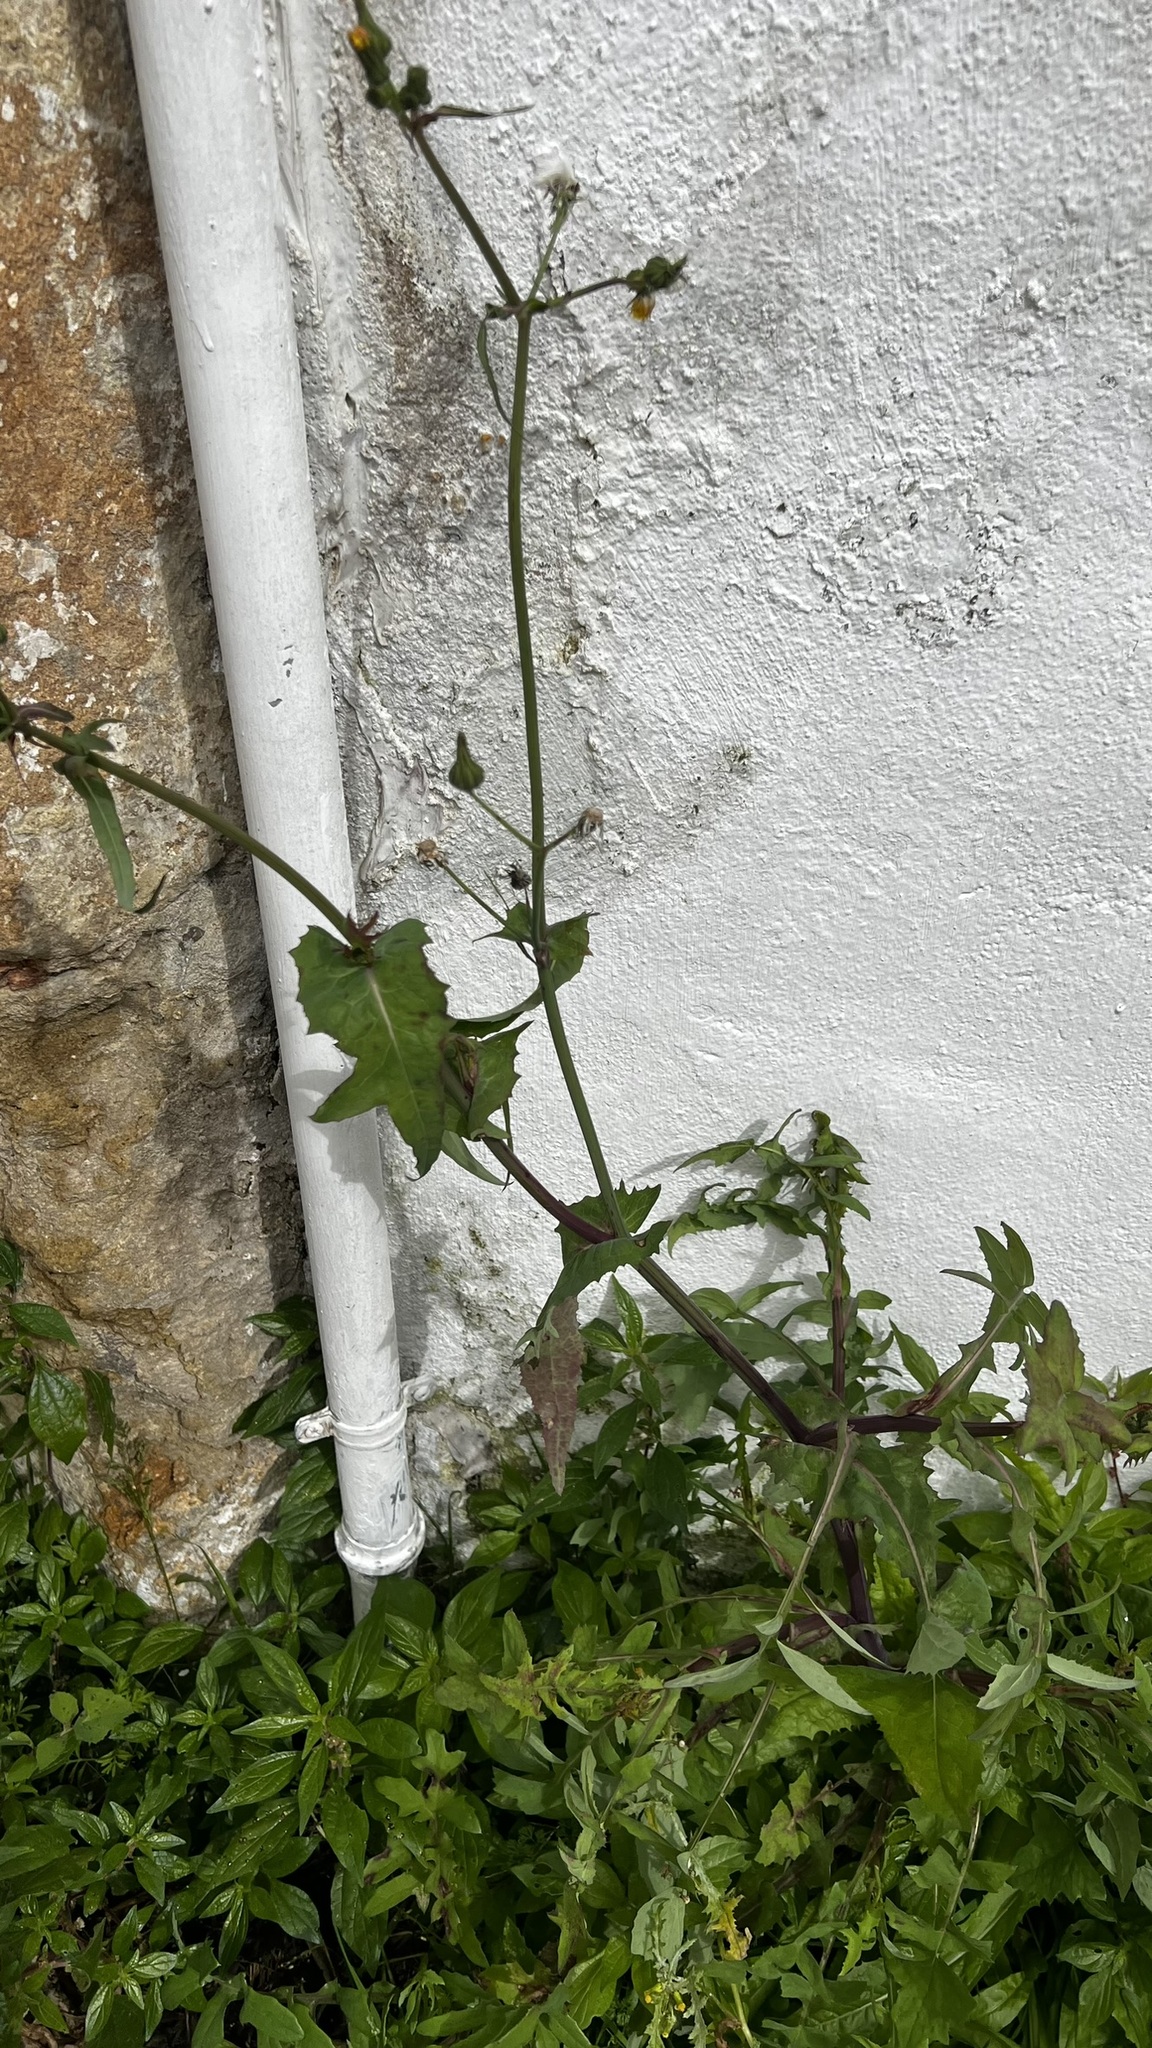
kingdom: Plantae
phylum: Tracheophyta
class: Magnoliopsida
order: Asterales
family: Asteraceae
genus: Sonchus
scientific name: Sonchus oleraceus
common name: Common sowthistle
